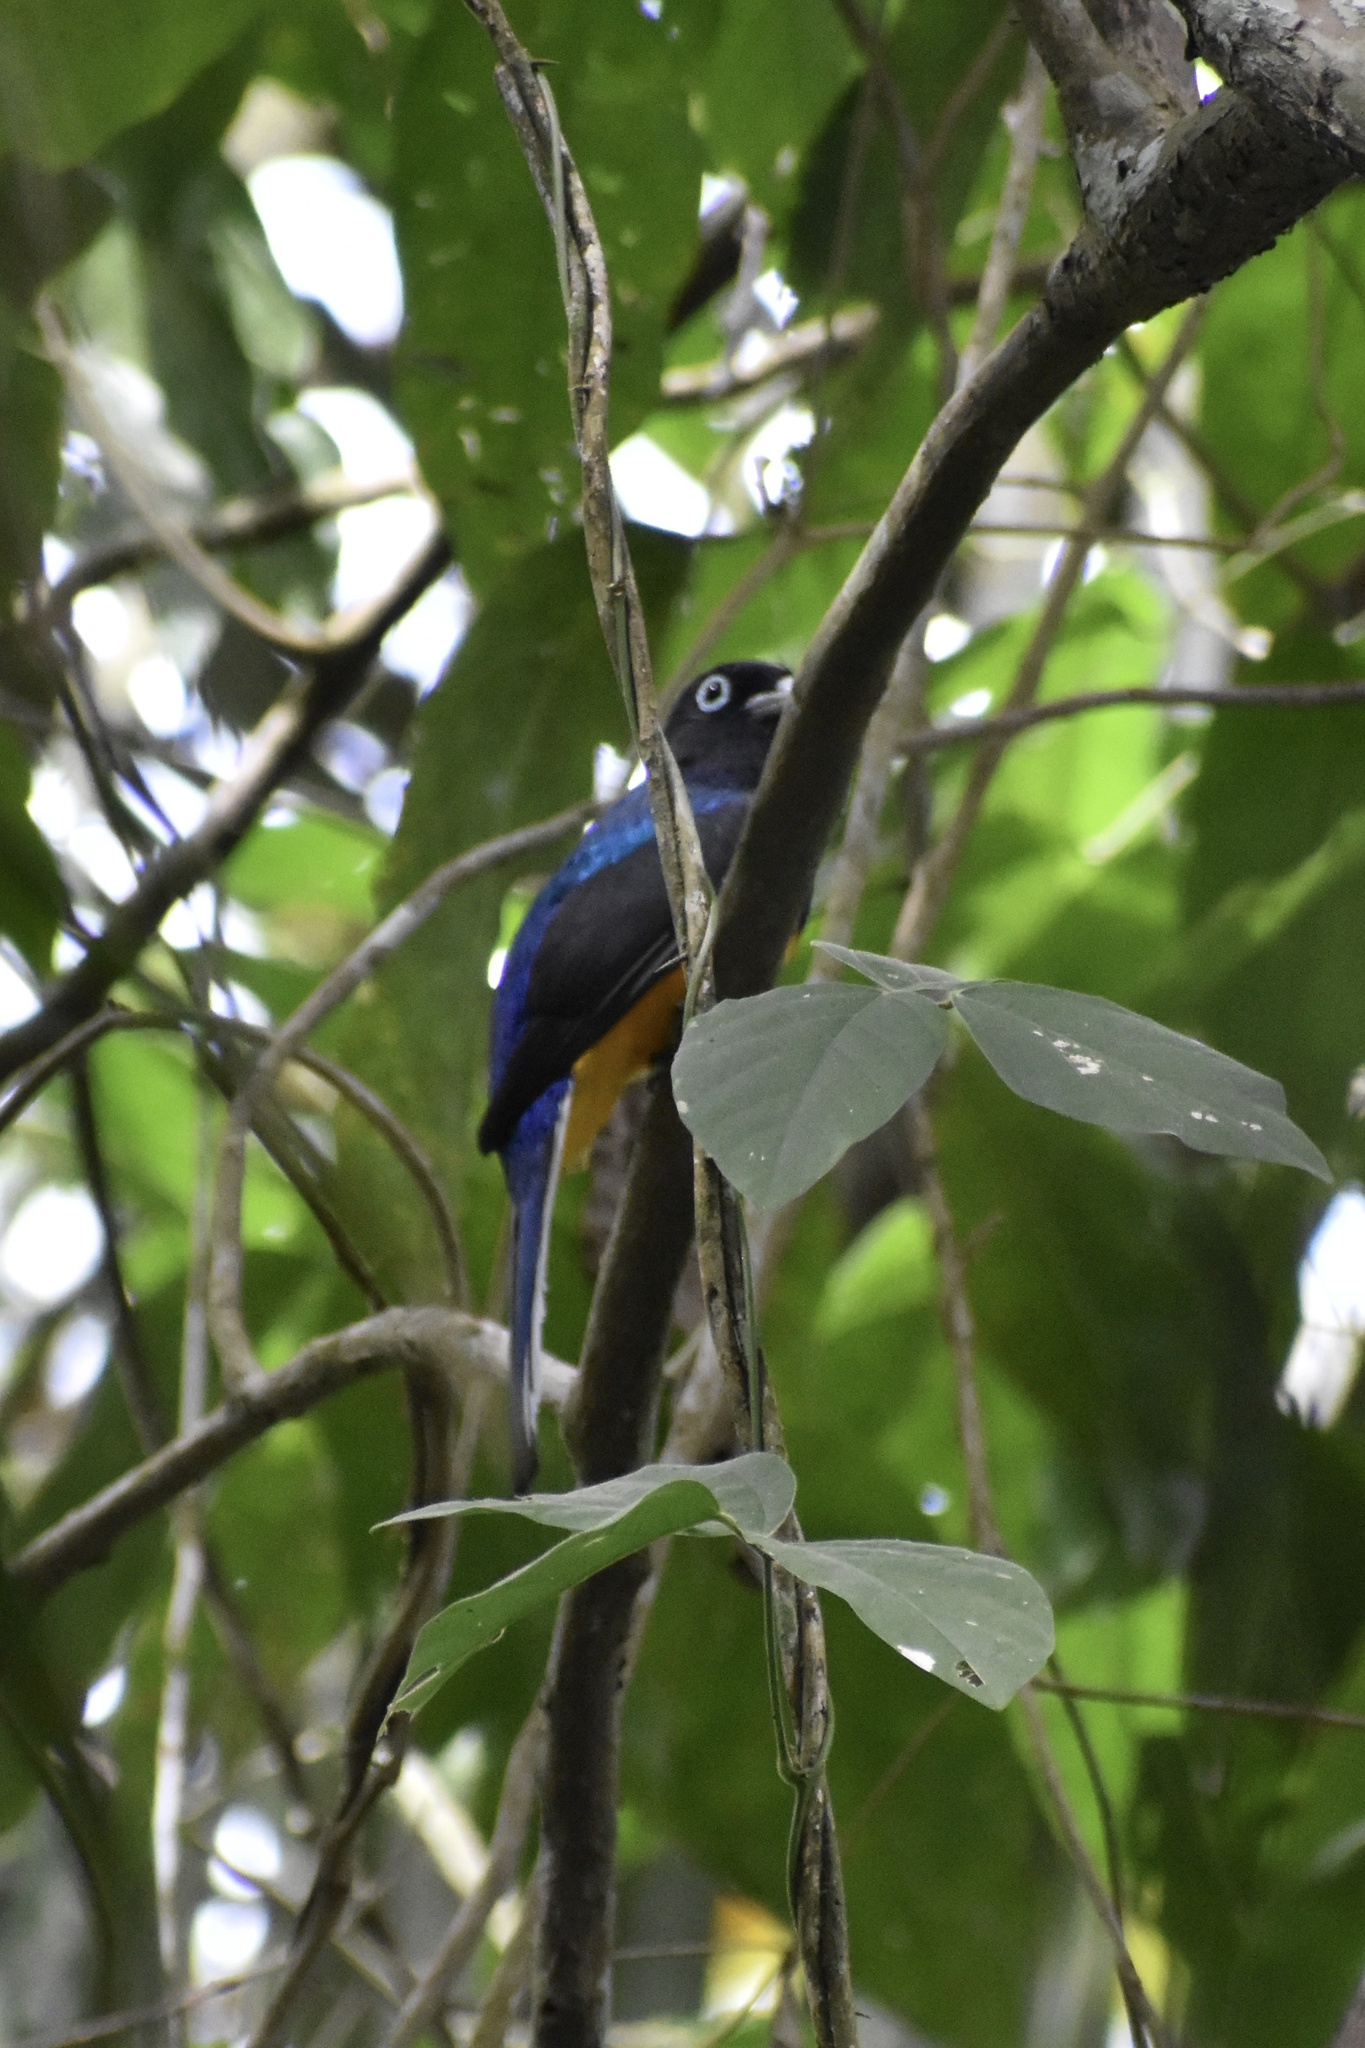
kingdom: Animalia
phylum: Chordata
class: Aves
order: Trogoniformes
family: Trogonidae
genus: Trogon
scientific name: Trogon chionurus
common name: White-tailed trogon
